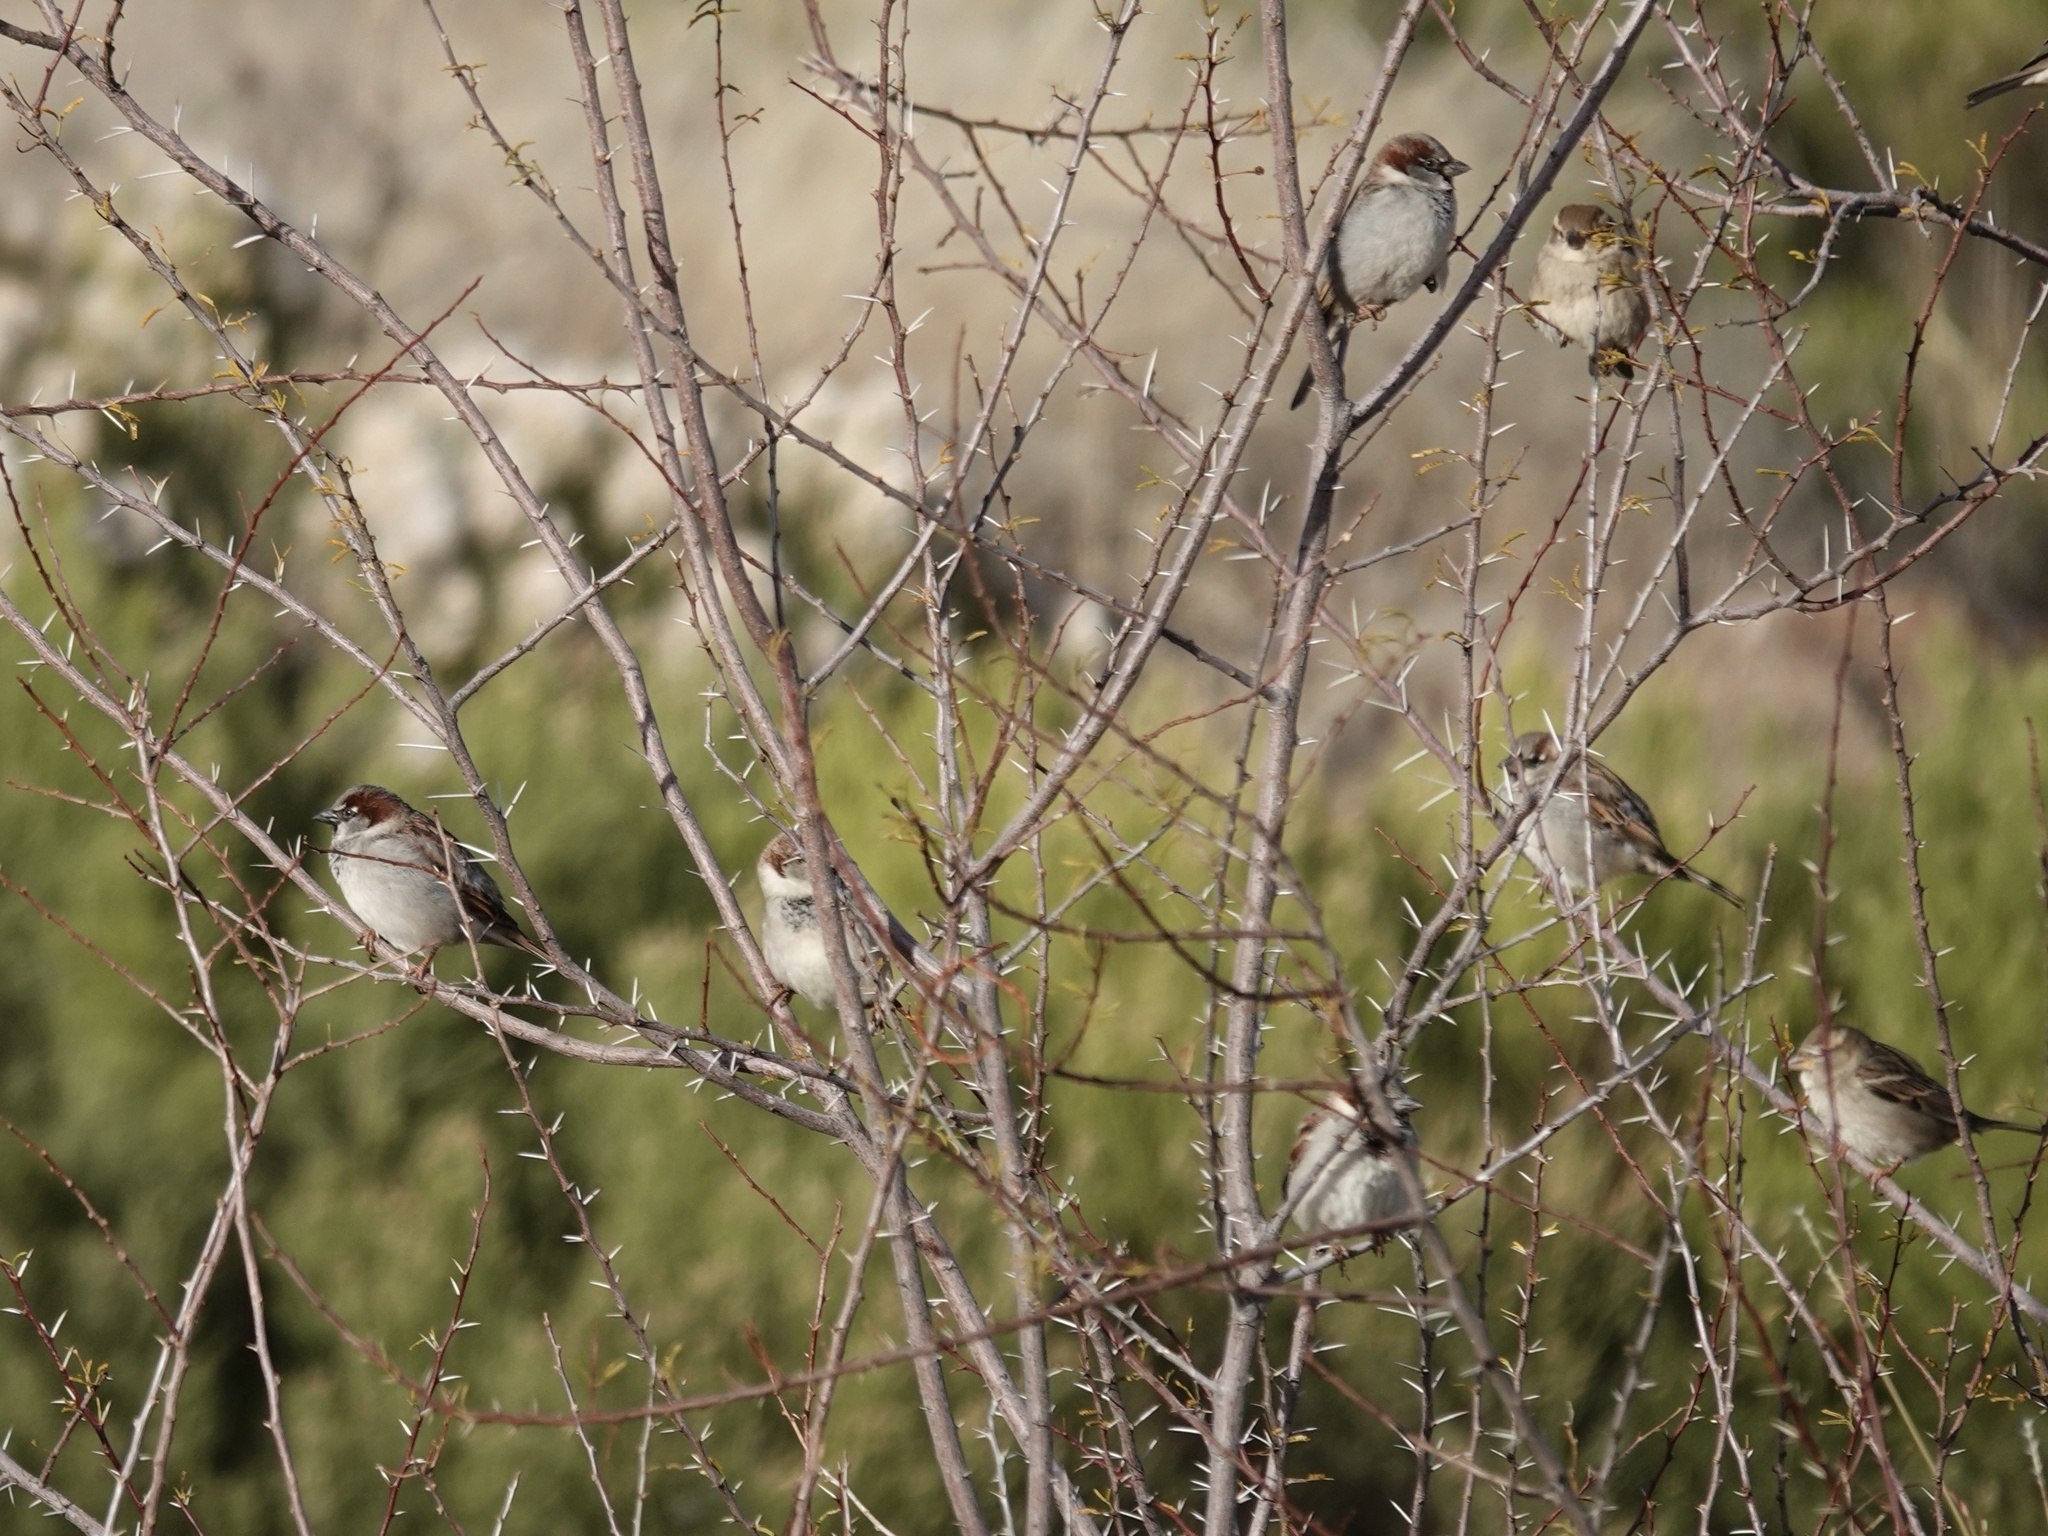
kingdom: Animalia
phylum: Chordata
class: Aves
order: Passeriformes
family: Passeridae
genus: Passer
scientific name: Passer domesticus
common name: House sparrow
